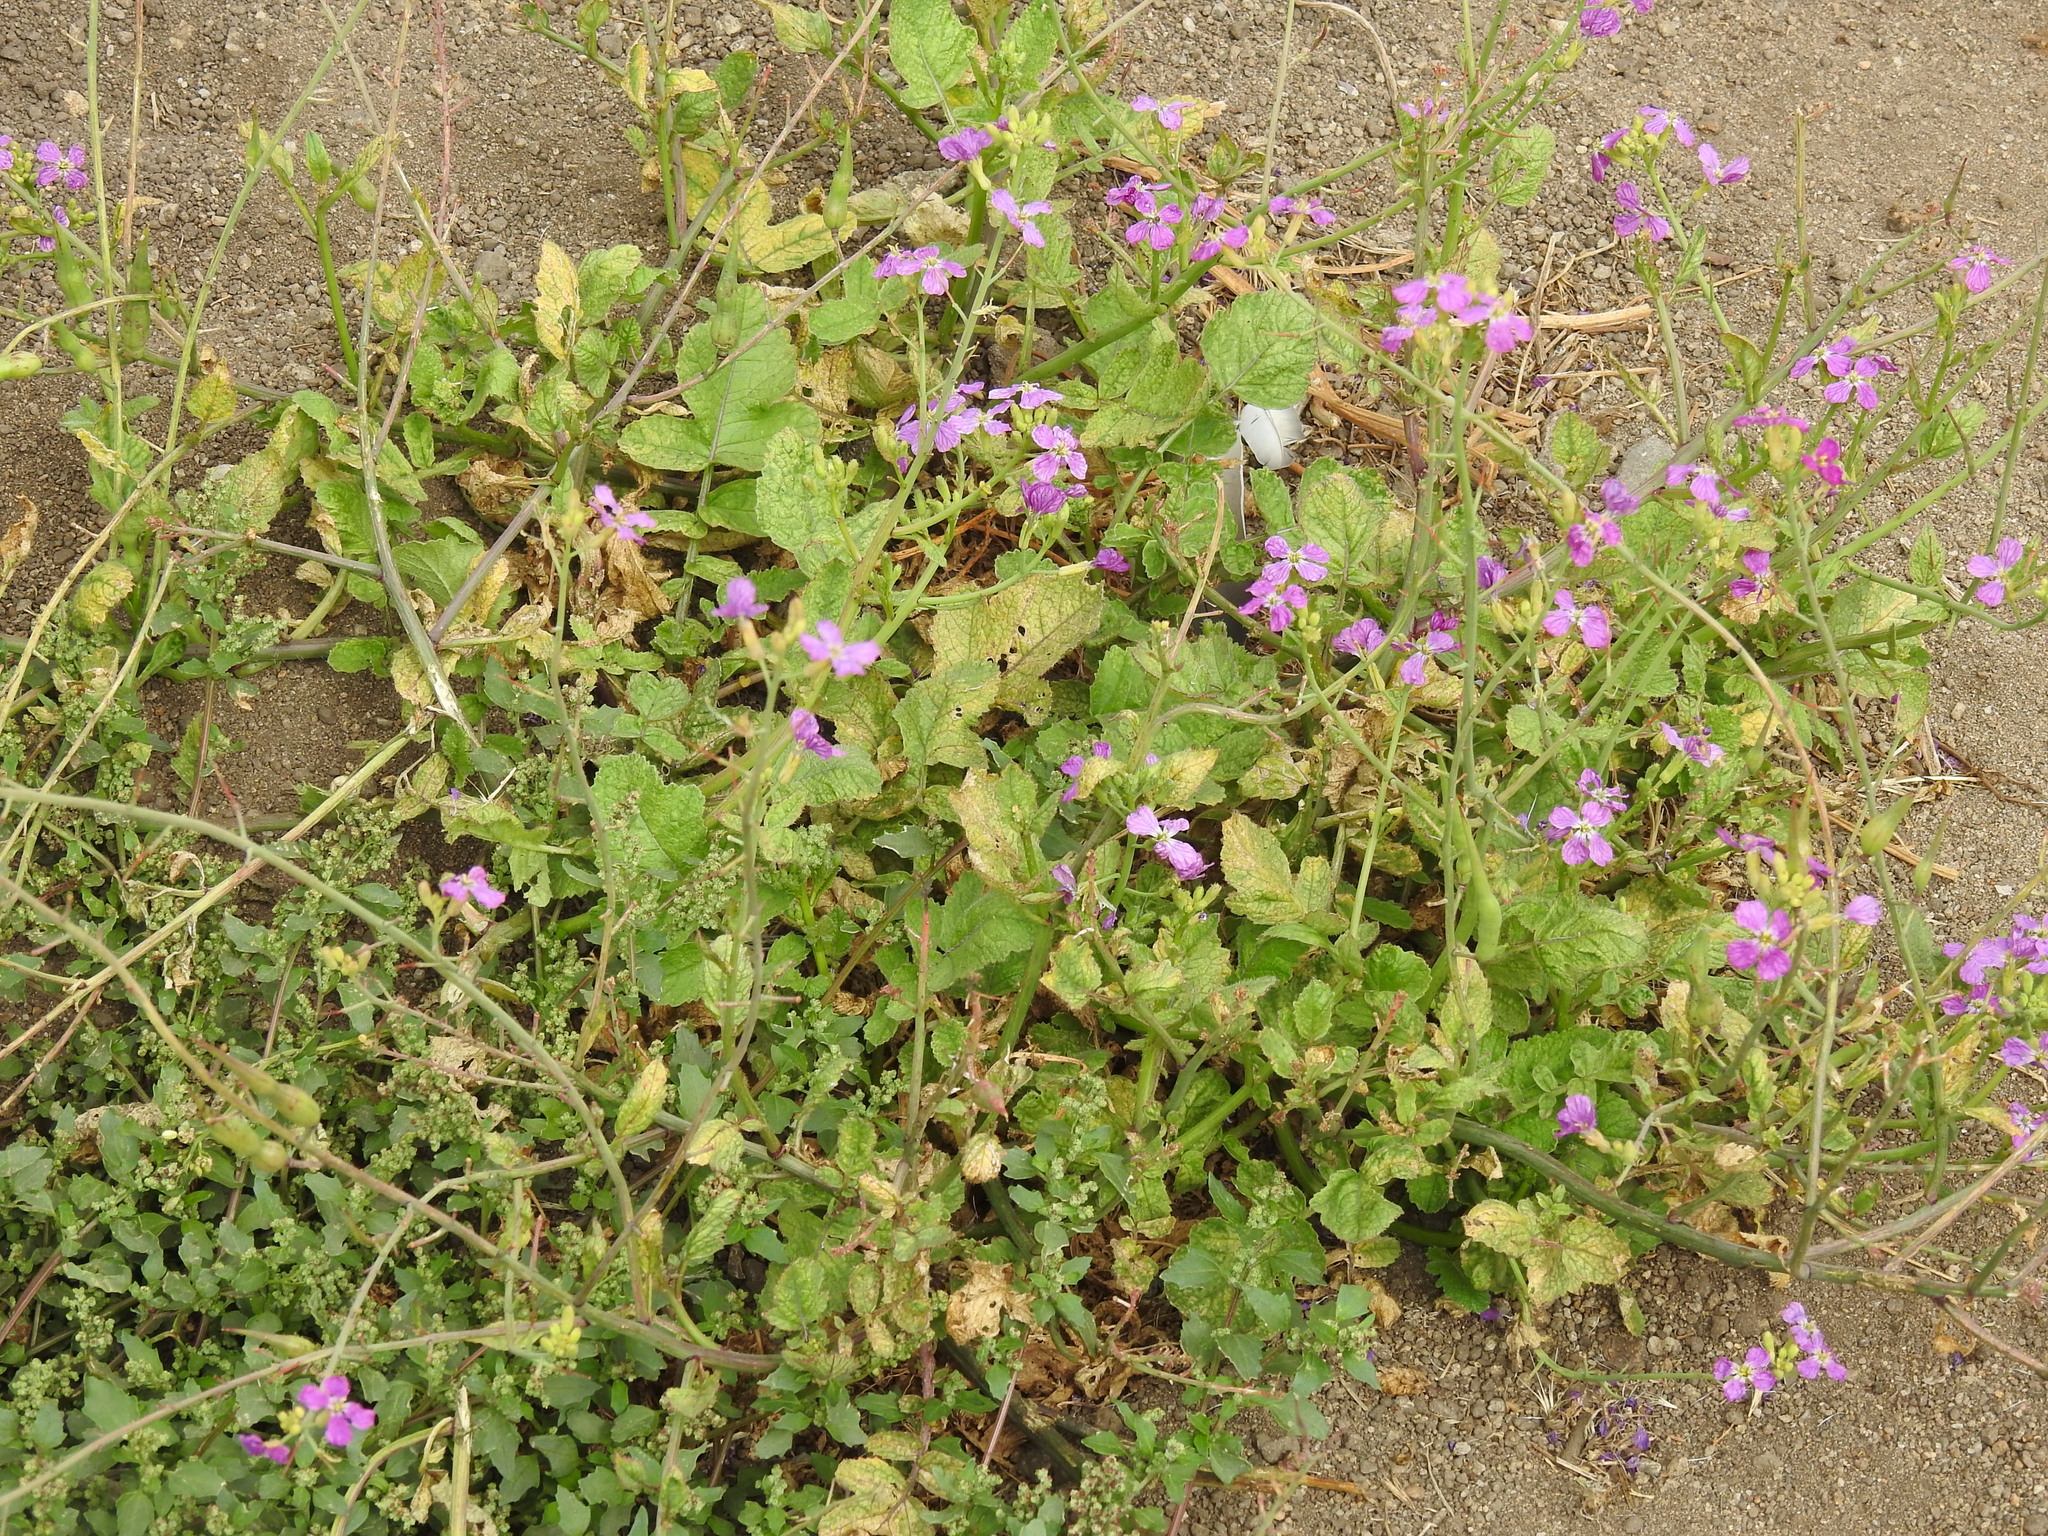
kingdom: Plantae
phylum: Tracheophyta
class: Magnoliopsida
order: Brassicales
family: Brassicaceae
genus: Raphanus
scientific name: Raphanus sativus
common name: Cultivated radish
